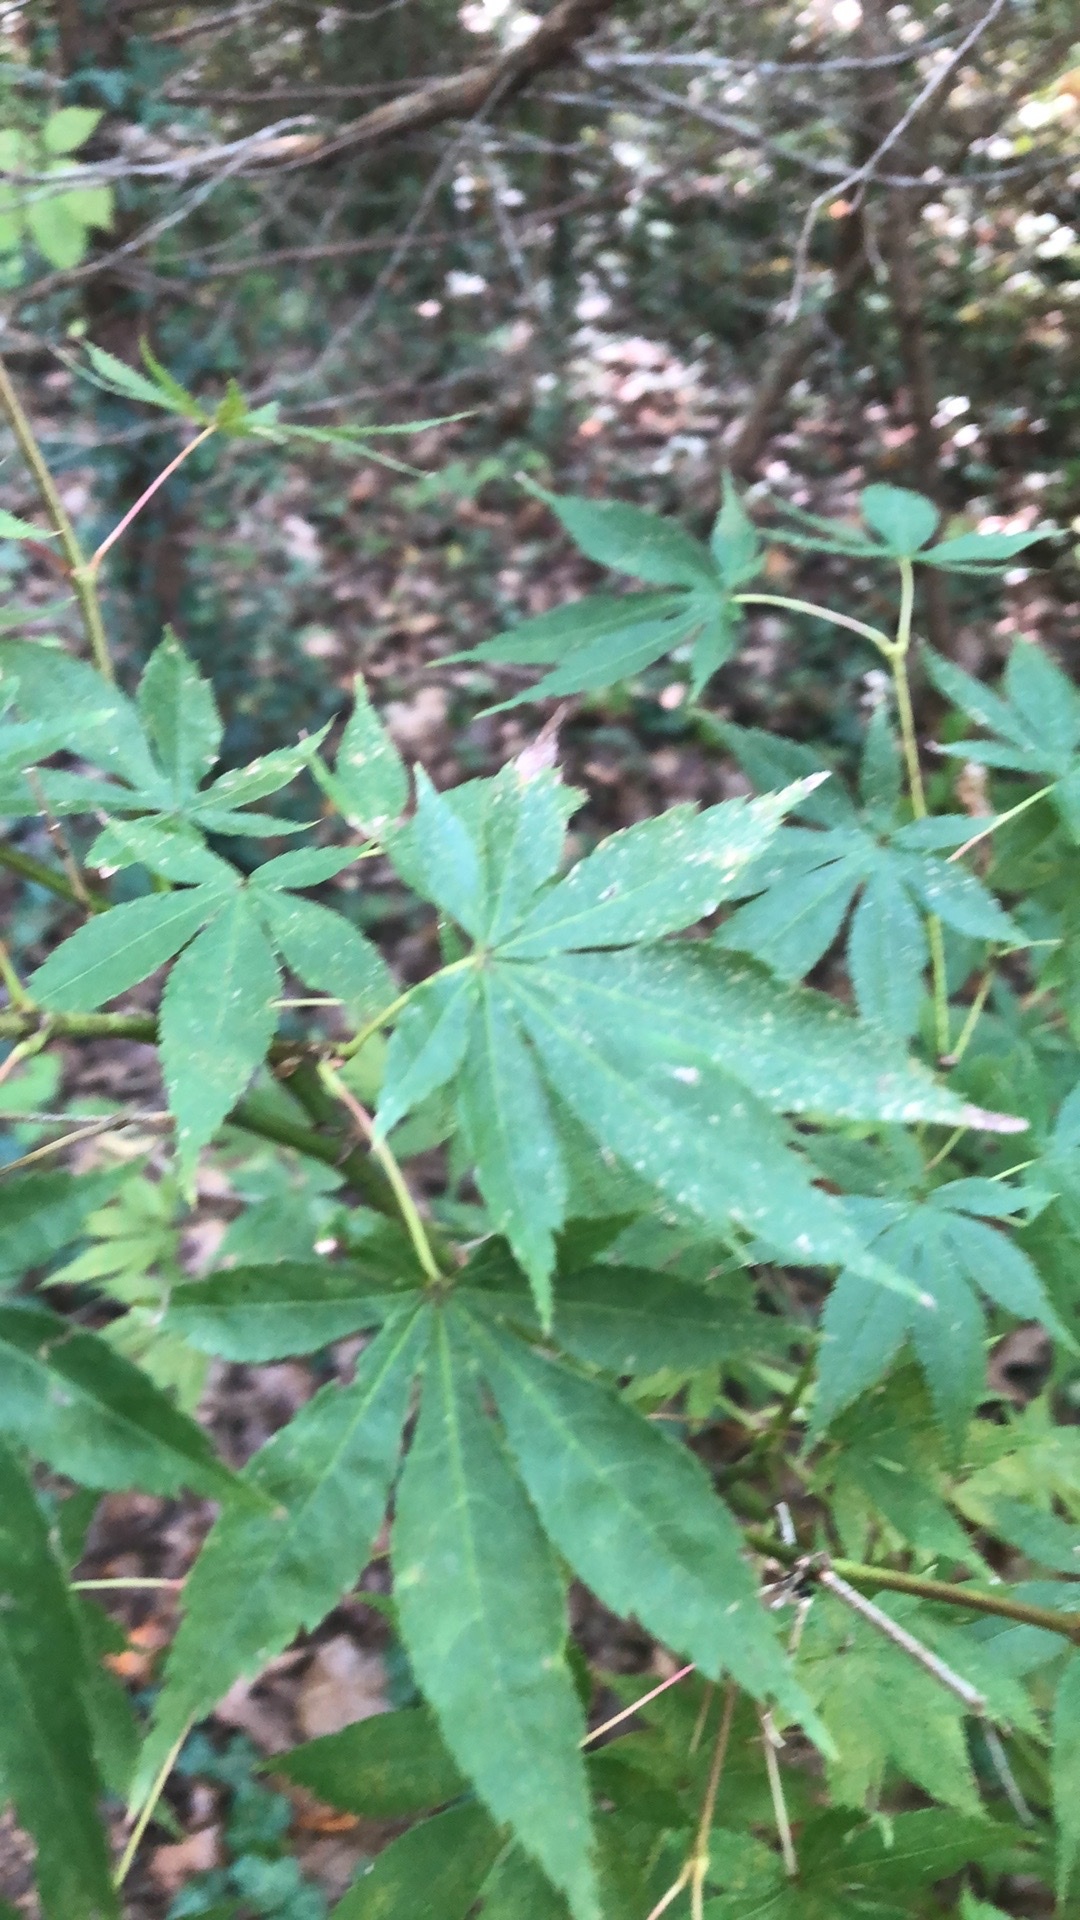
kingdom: Plantae
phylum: Tracheophyta
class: Magnoliopsida
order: Sapindales
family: Sapindaceae
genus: Acer
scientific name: Acer palmatum
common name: Japanese maple
